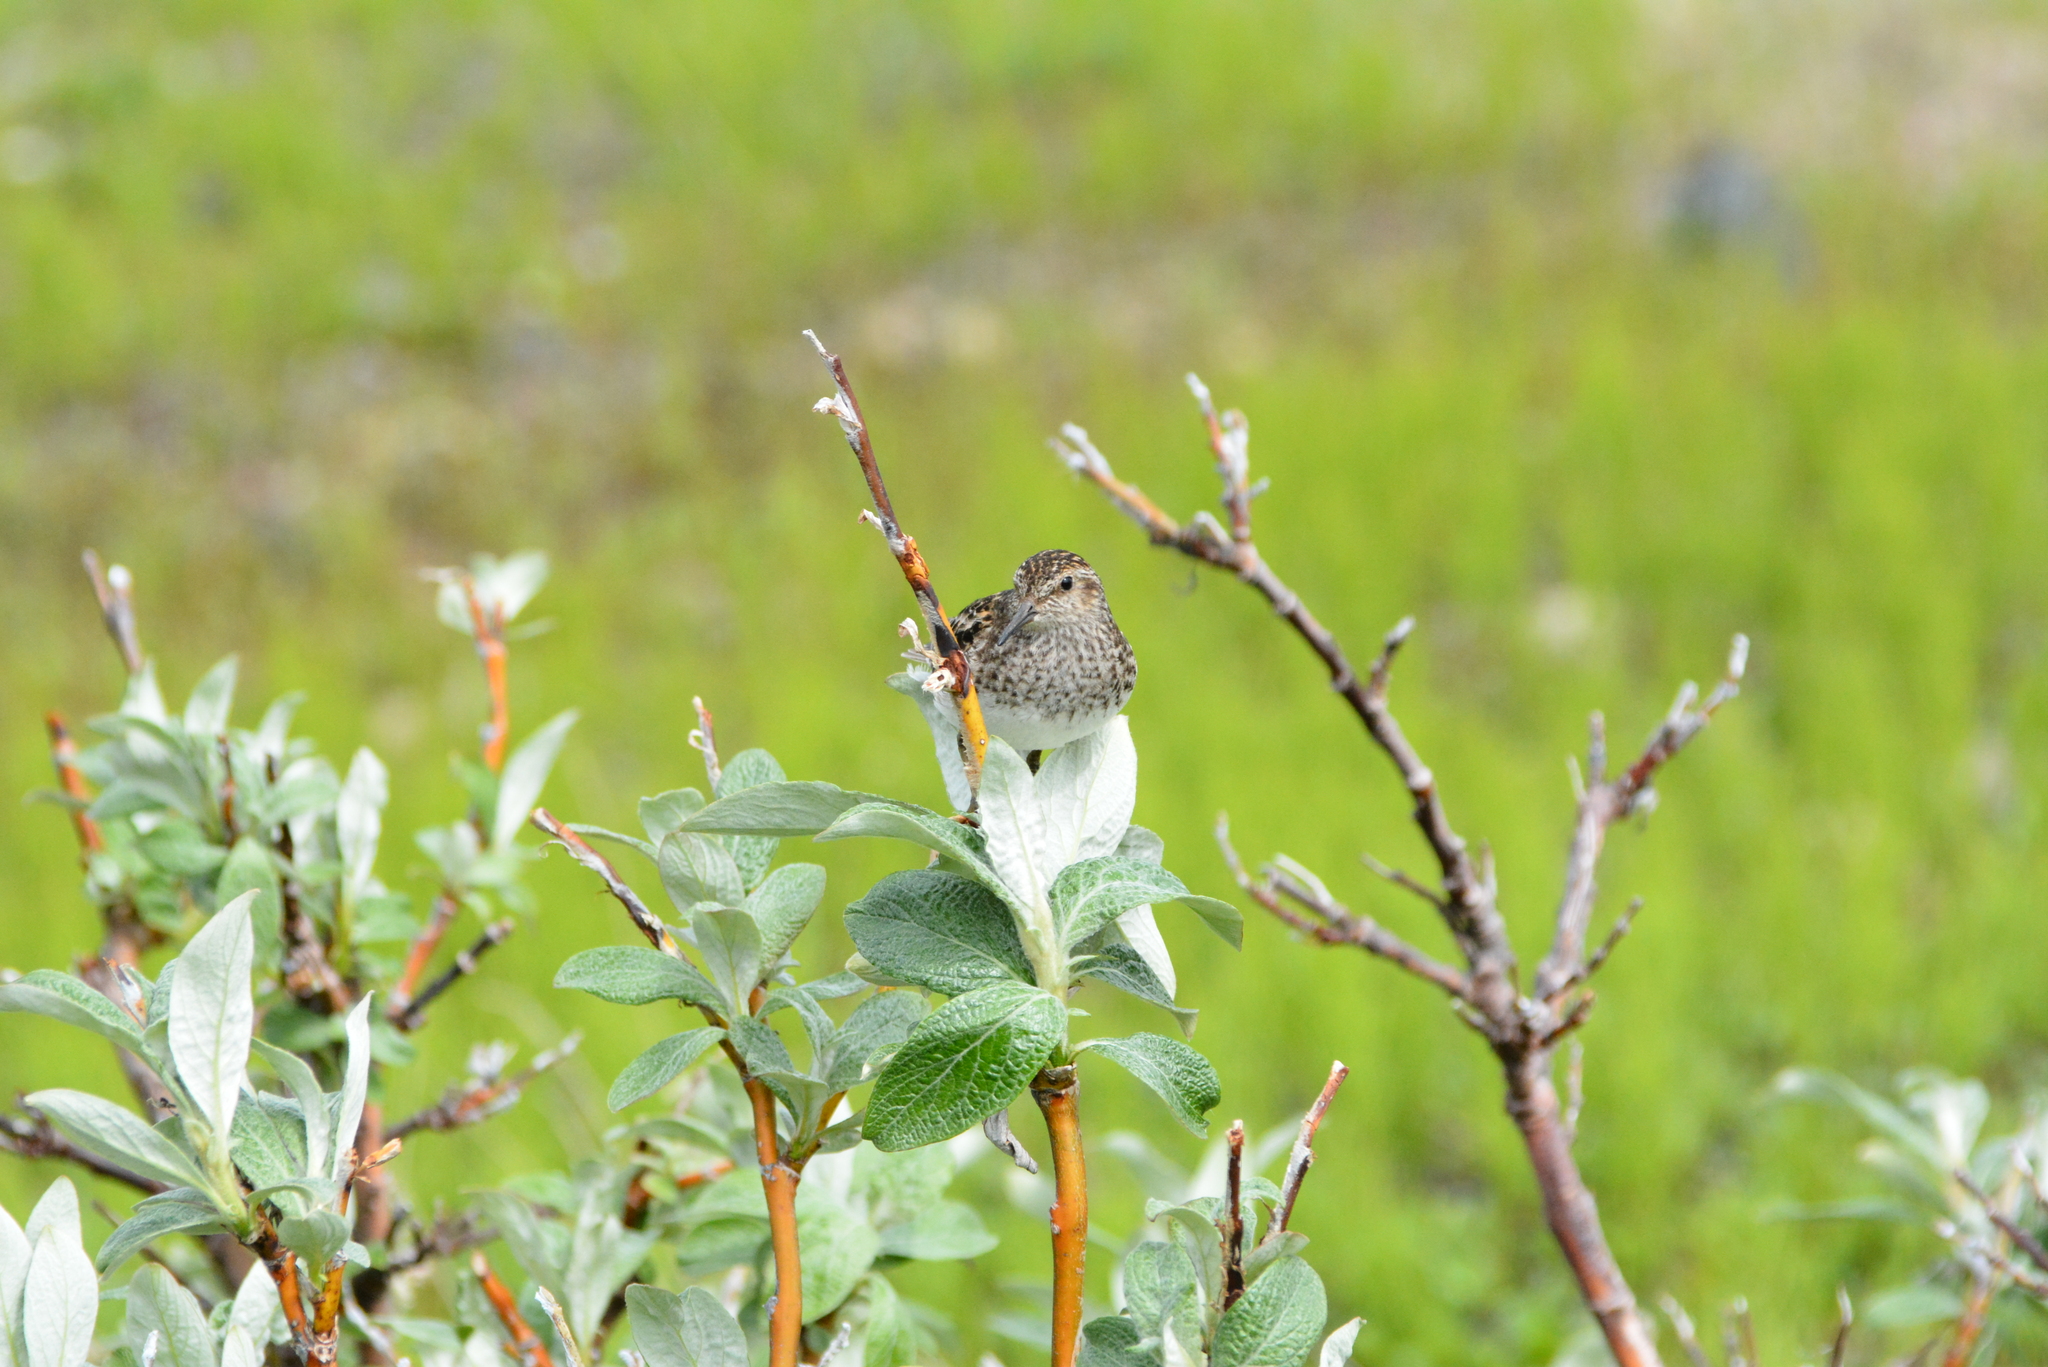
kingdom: Animalia
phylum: Chordata
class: Aves
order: Charadriiformes
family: Scolopacidae
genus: Calidris
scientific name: Calidris minutilla
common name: Least sandpiper
